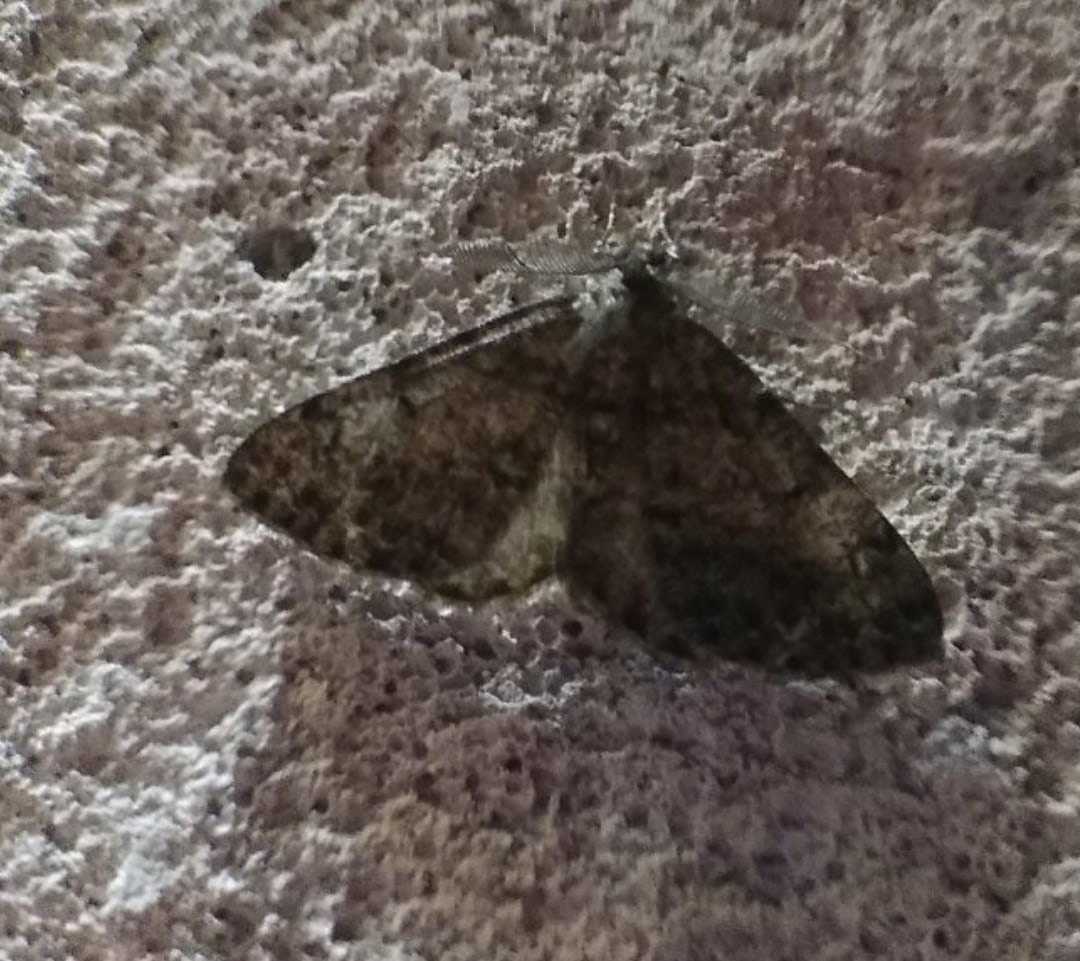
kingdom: Animalia
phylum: Arthropoda
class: Insecta
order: Lepidoptera
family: Geometridae
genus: Hypomecis
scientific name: Hypomecis punctinalis
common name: Pale oak beauty
